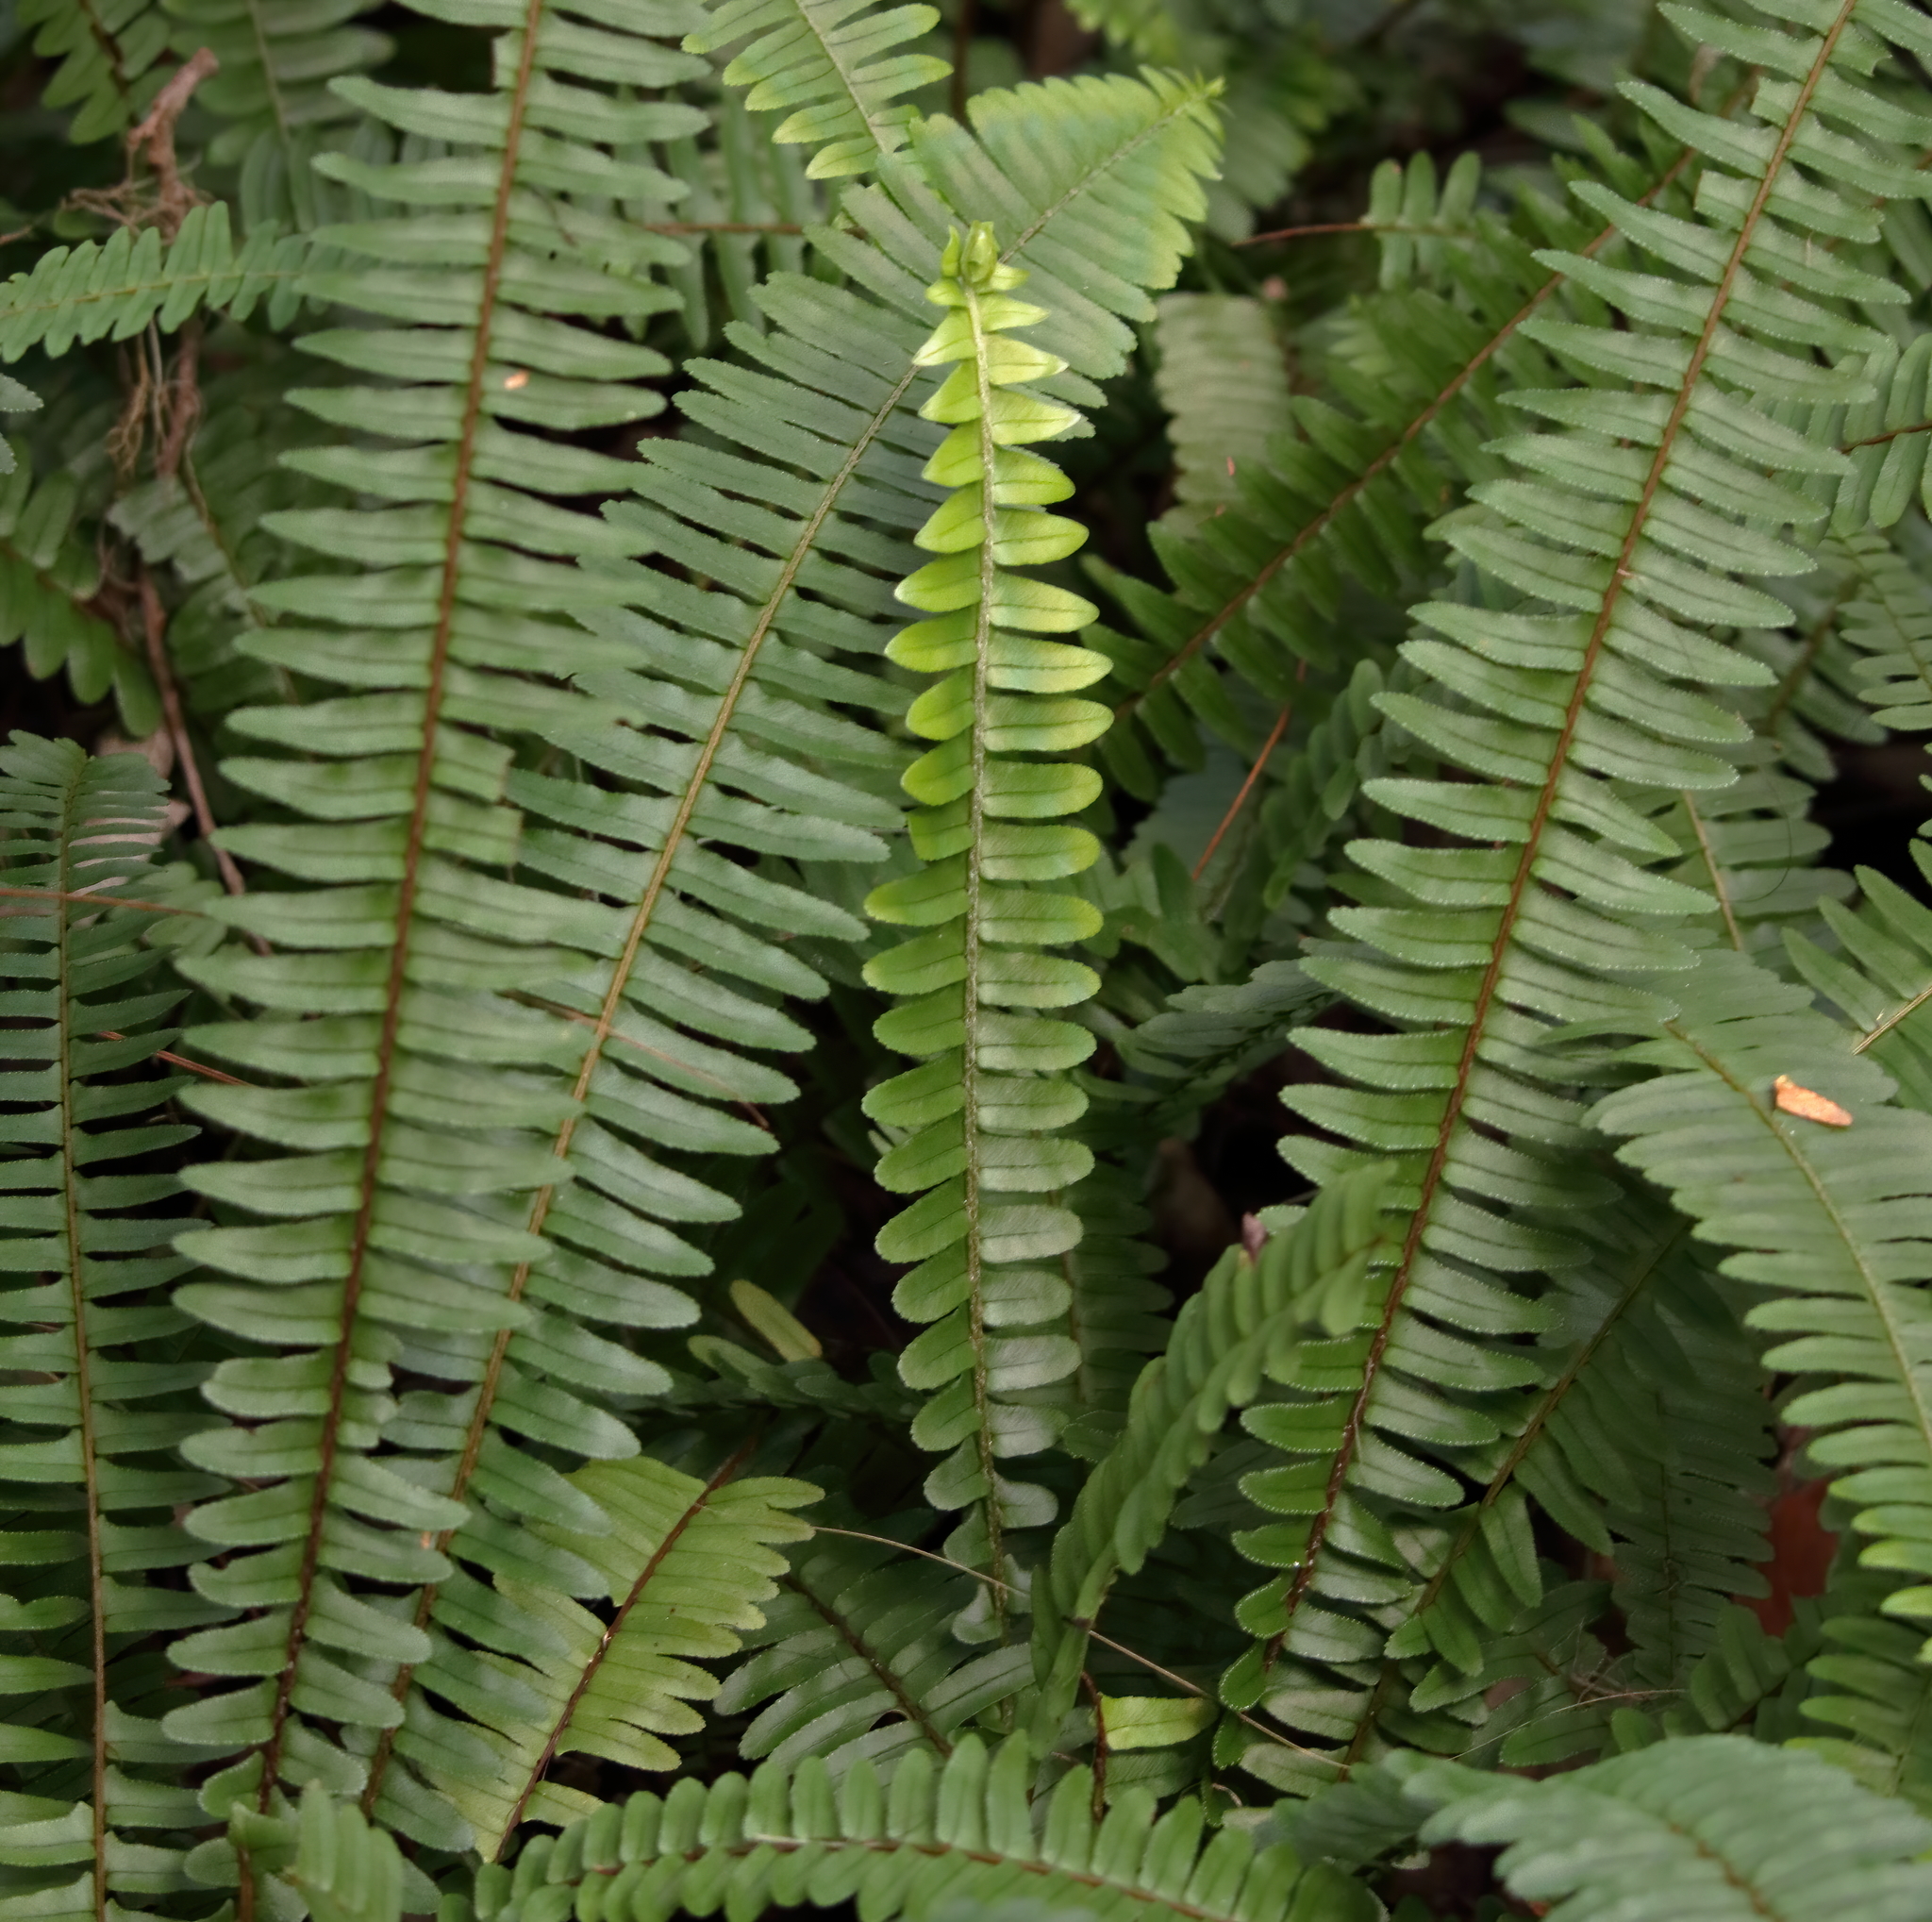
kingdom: Plantae
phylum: Tracheophyta
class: Polypodiopsida
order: Polypodiales
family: Nephrolepidaceae
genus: Nephrolepis
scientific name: Nephrolepis cordifolia
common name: Narrow swordfern
